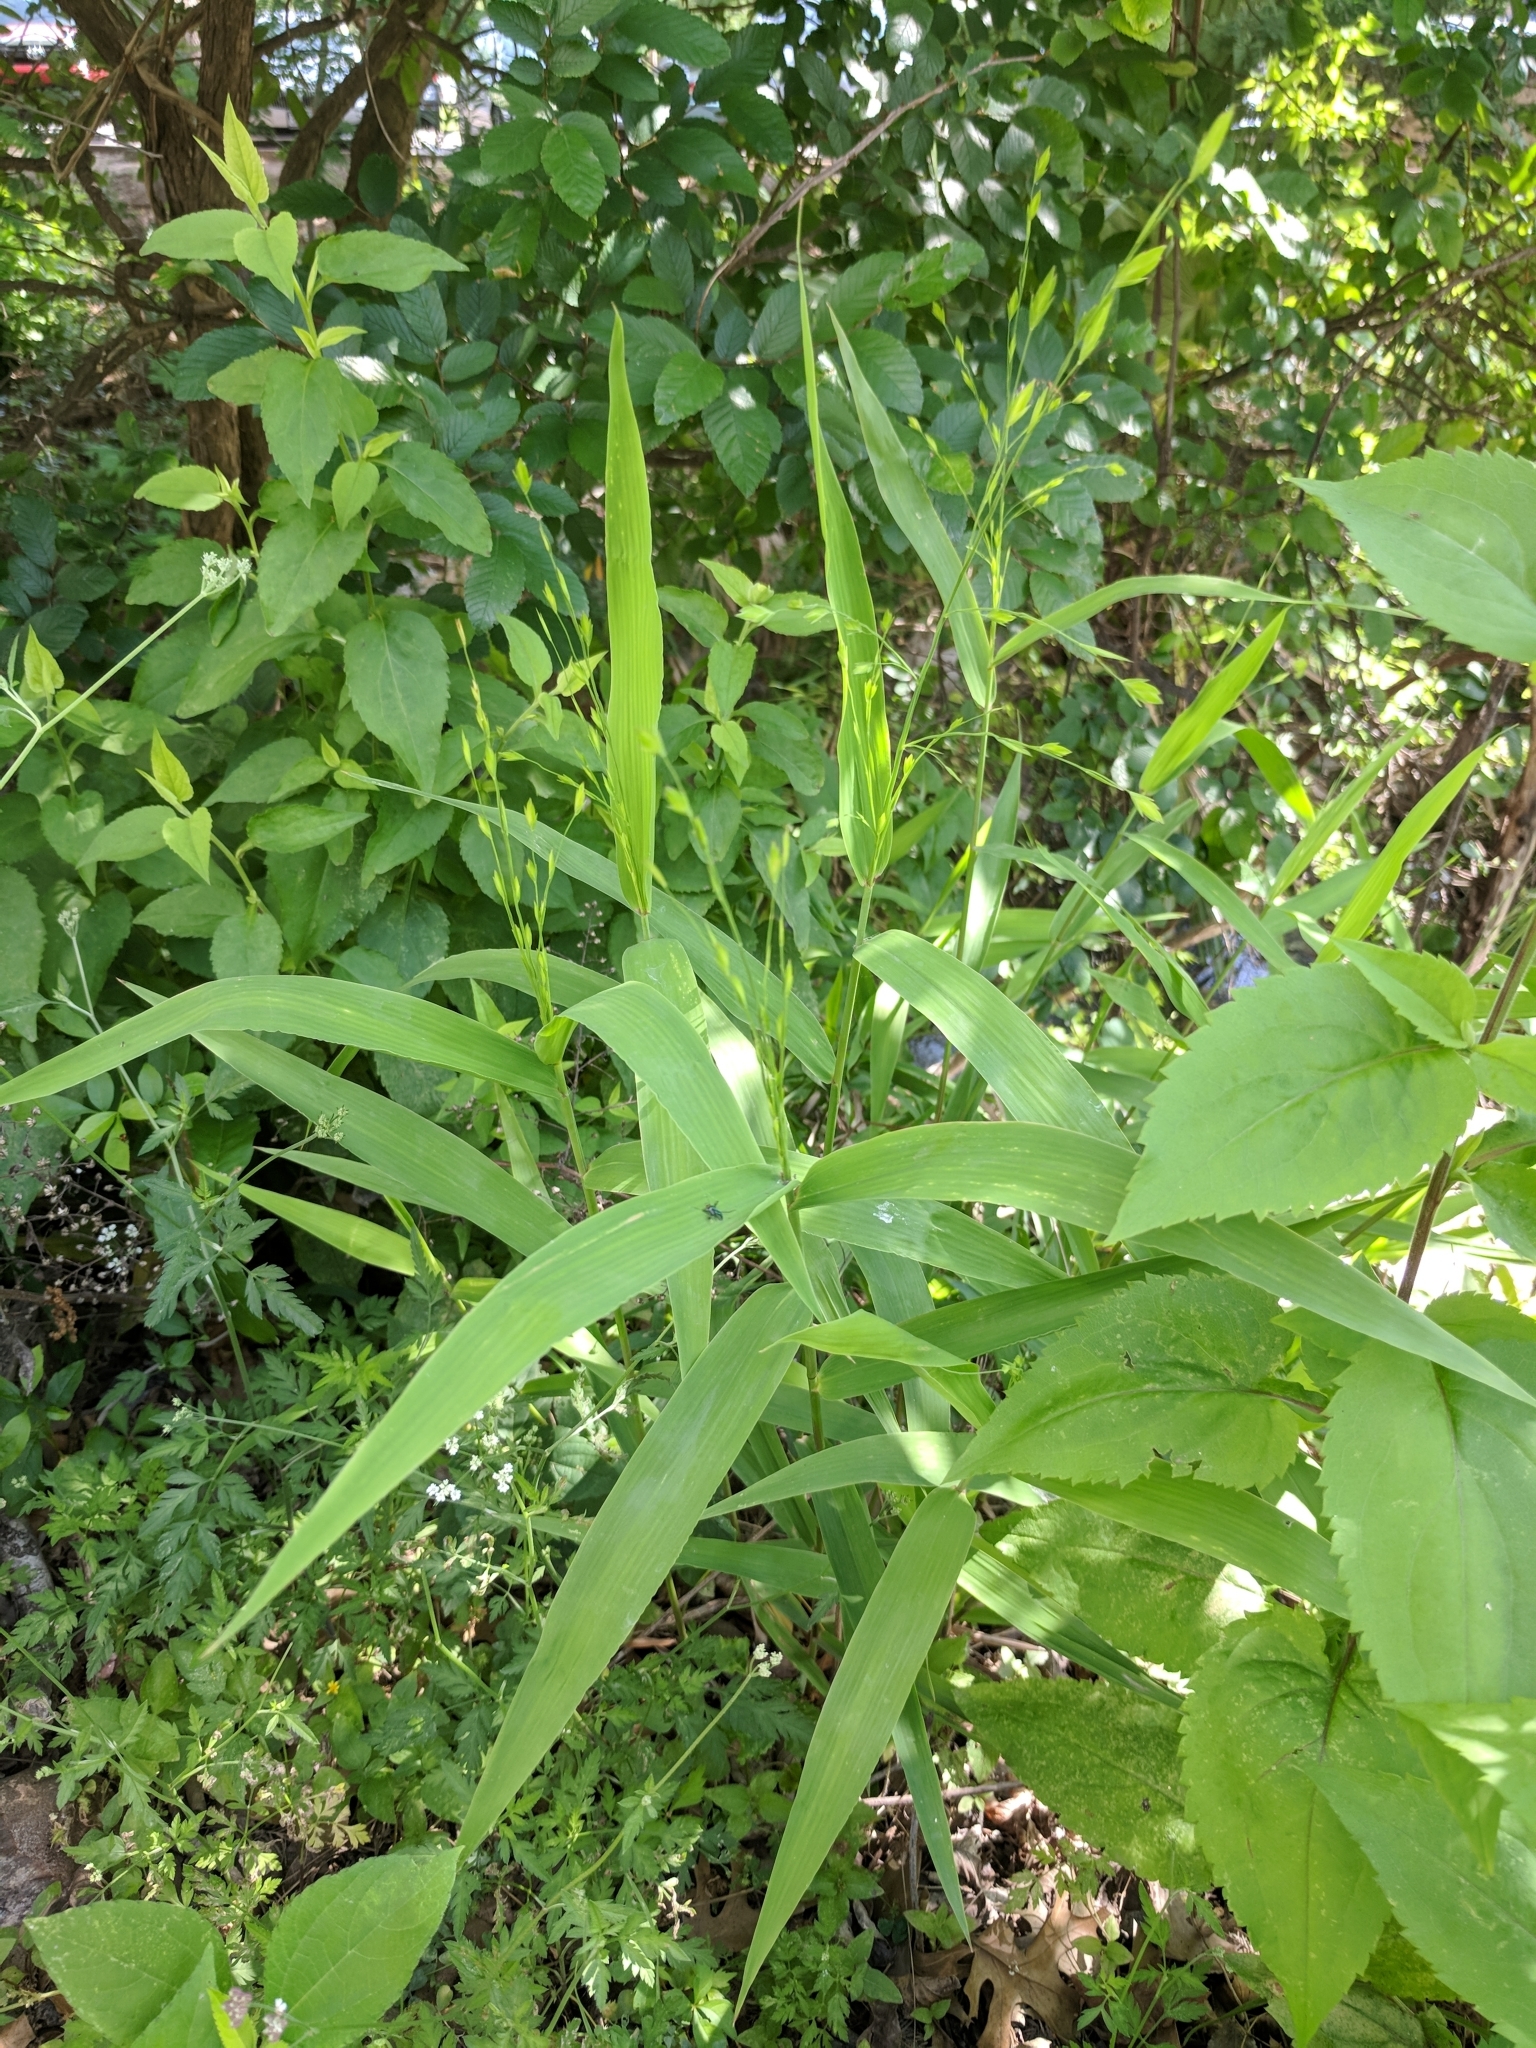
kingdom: Plantae
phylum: Tracheophyta
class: Liliopsida
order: Poales
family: Poaceae
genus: Chasmanthium
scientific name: Chasmanthium latifolium
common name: Broad-leaved chasmanthium
